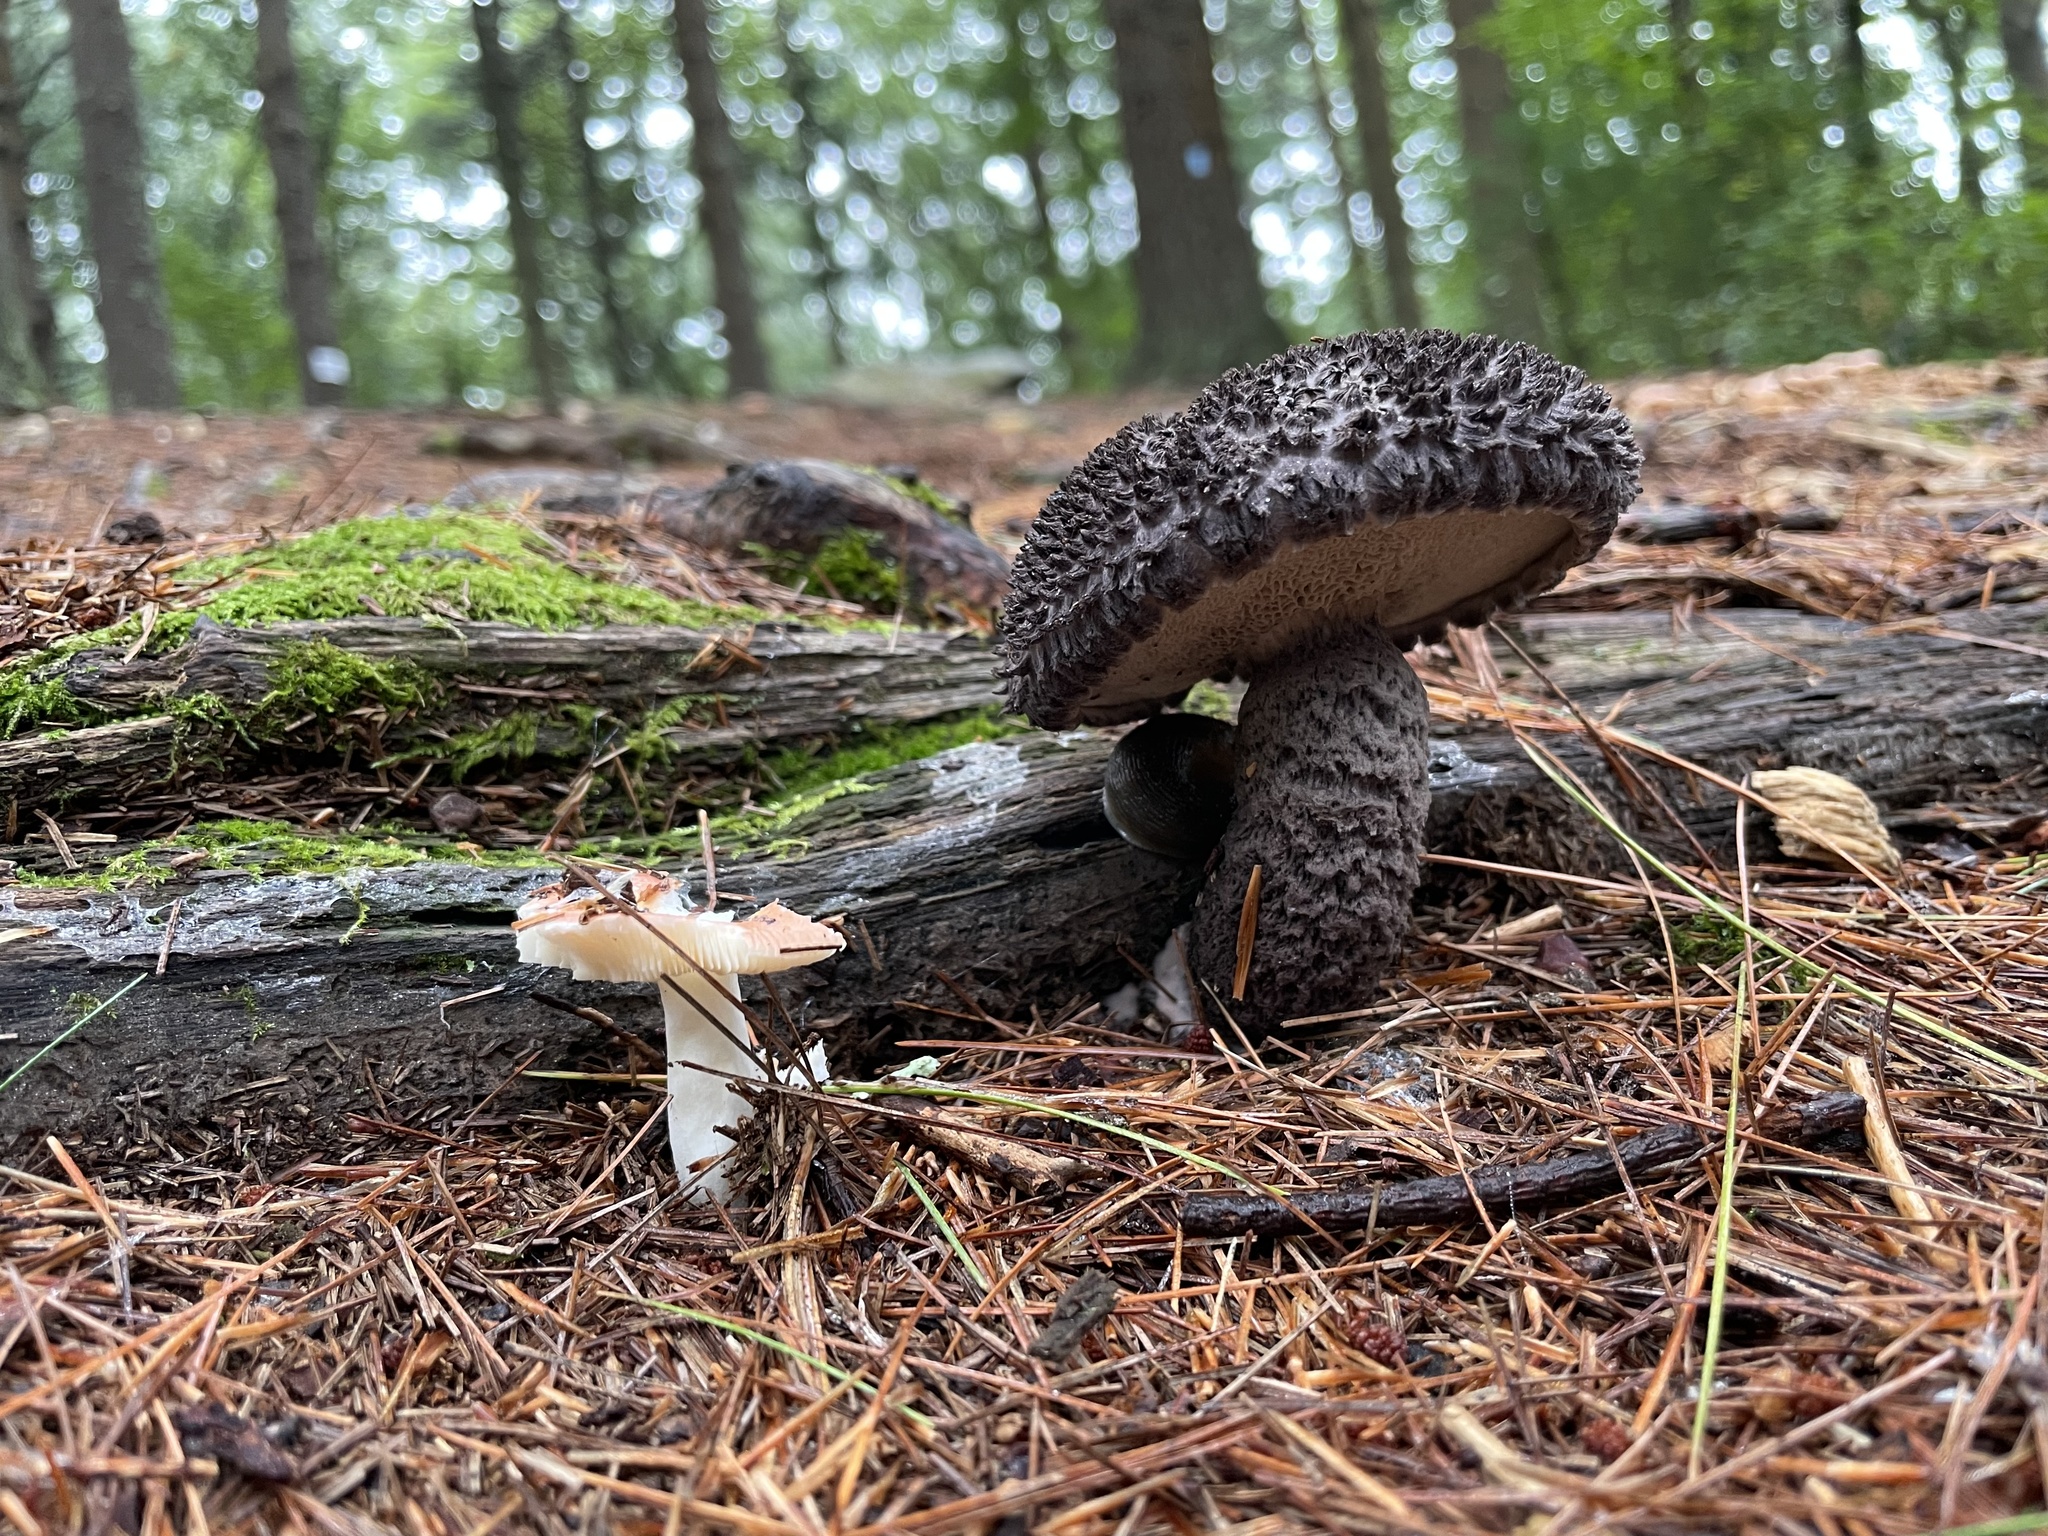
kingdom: Fungi
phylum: Basidiomycota
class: Agaricomycetes
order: Boletales
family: Boletaceae
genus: Strobilomyces
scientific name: Strobilomyces strobilaceus
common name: Old man of the woods
